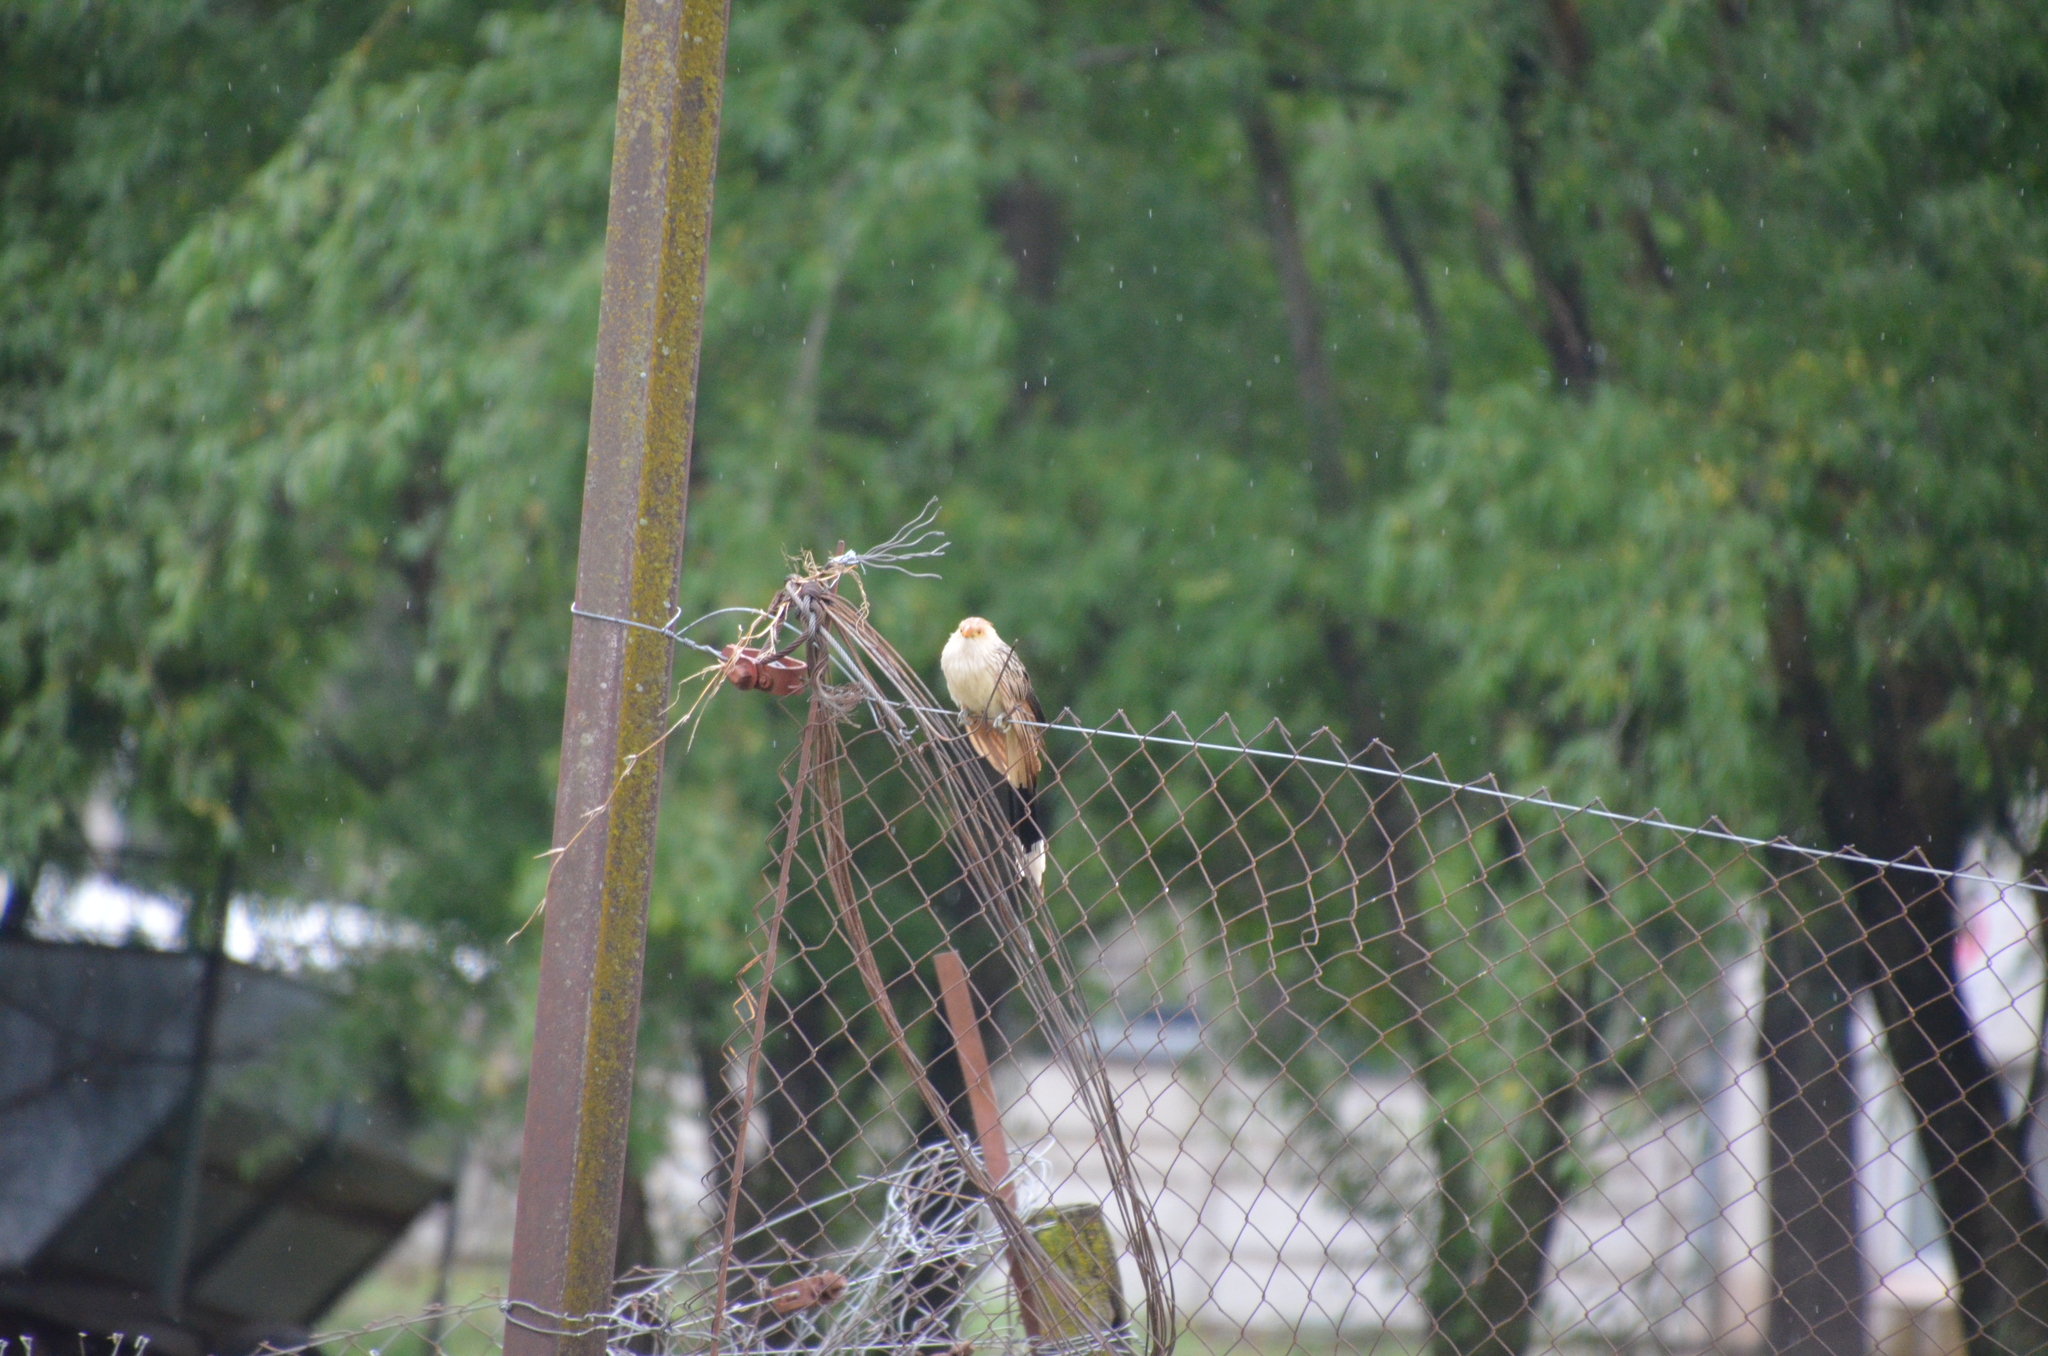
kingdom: Animalia
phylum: Chordata
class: Aves
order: Cuculiformes
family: Cuculidae
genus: Guira
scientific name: Guira guira
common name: Guira cuckoo
